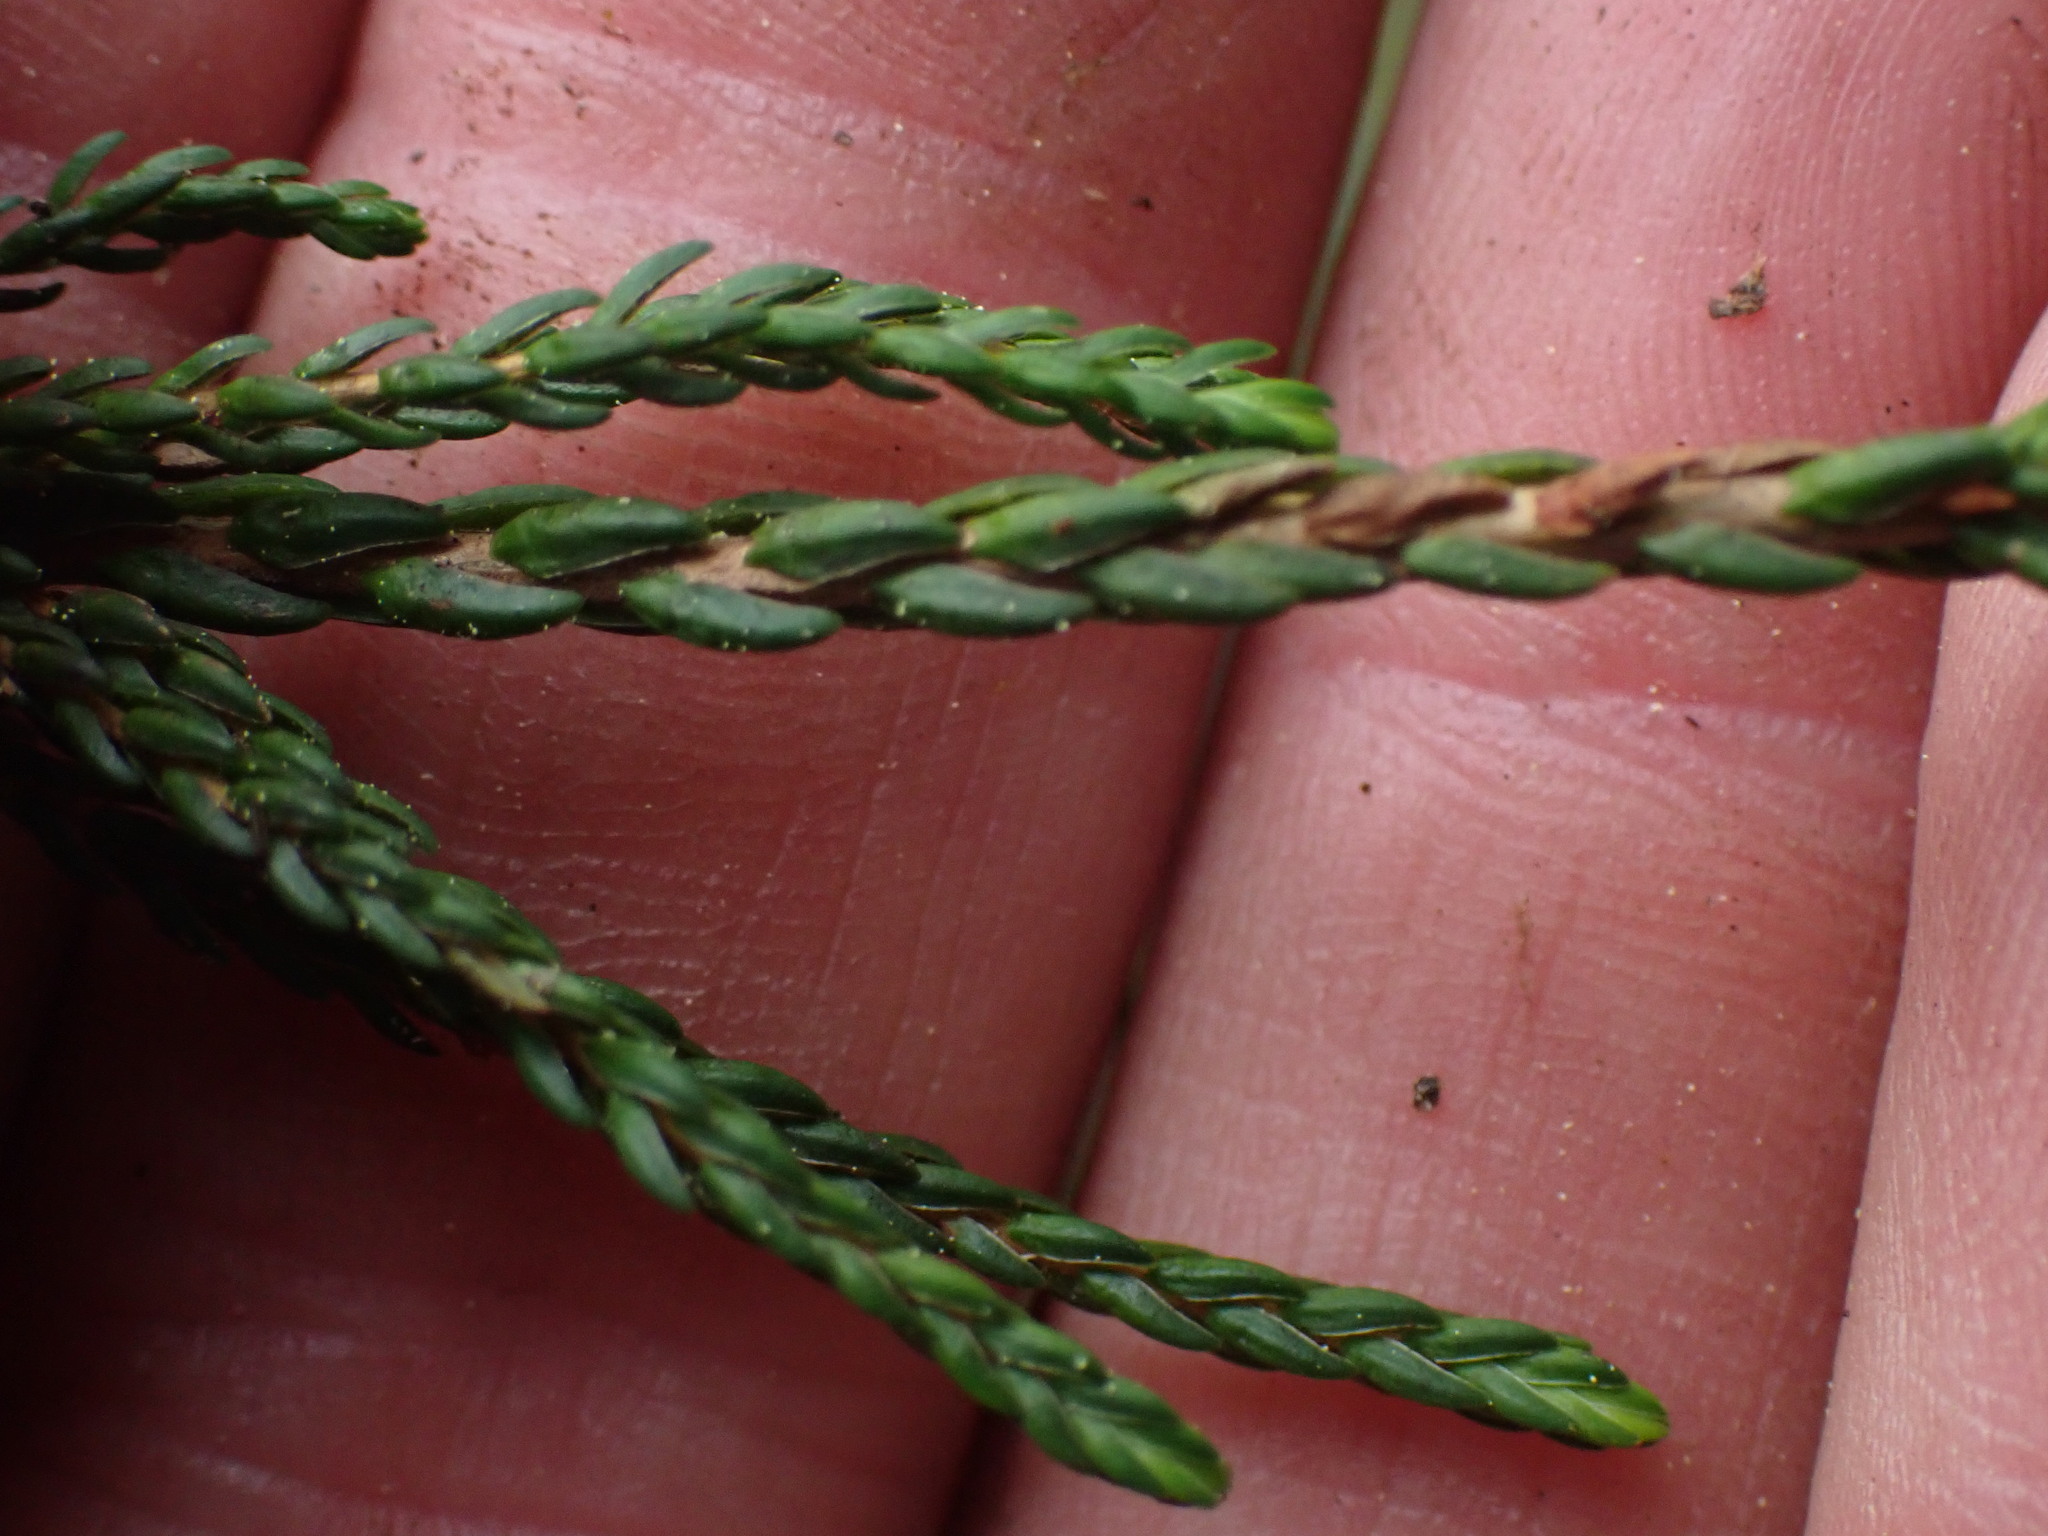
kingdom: Plantae
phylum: Tracheophyta
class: Magnoliopsida
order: Ericales
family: Ericaceae
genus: Cassiope
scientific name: Cassiope mertensiana
